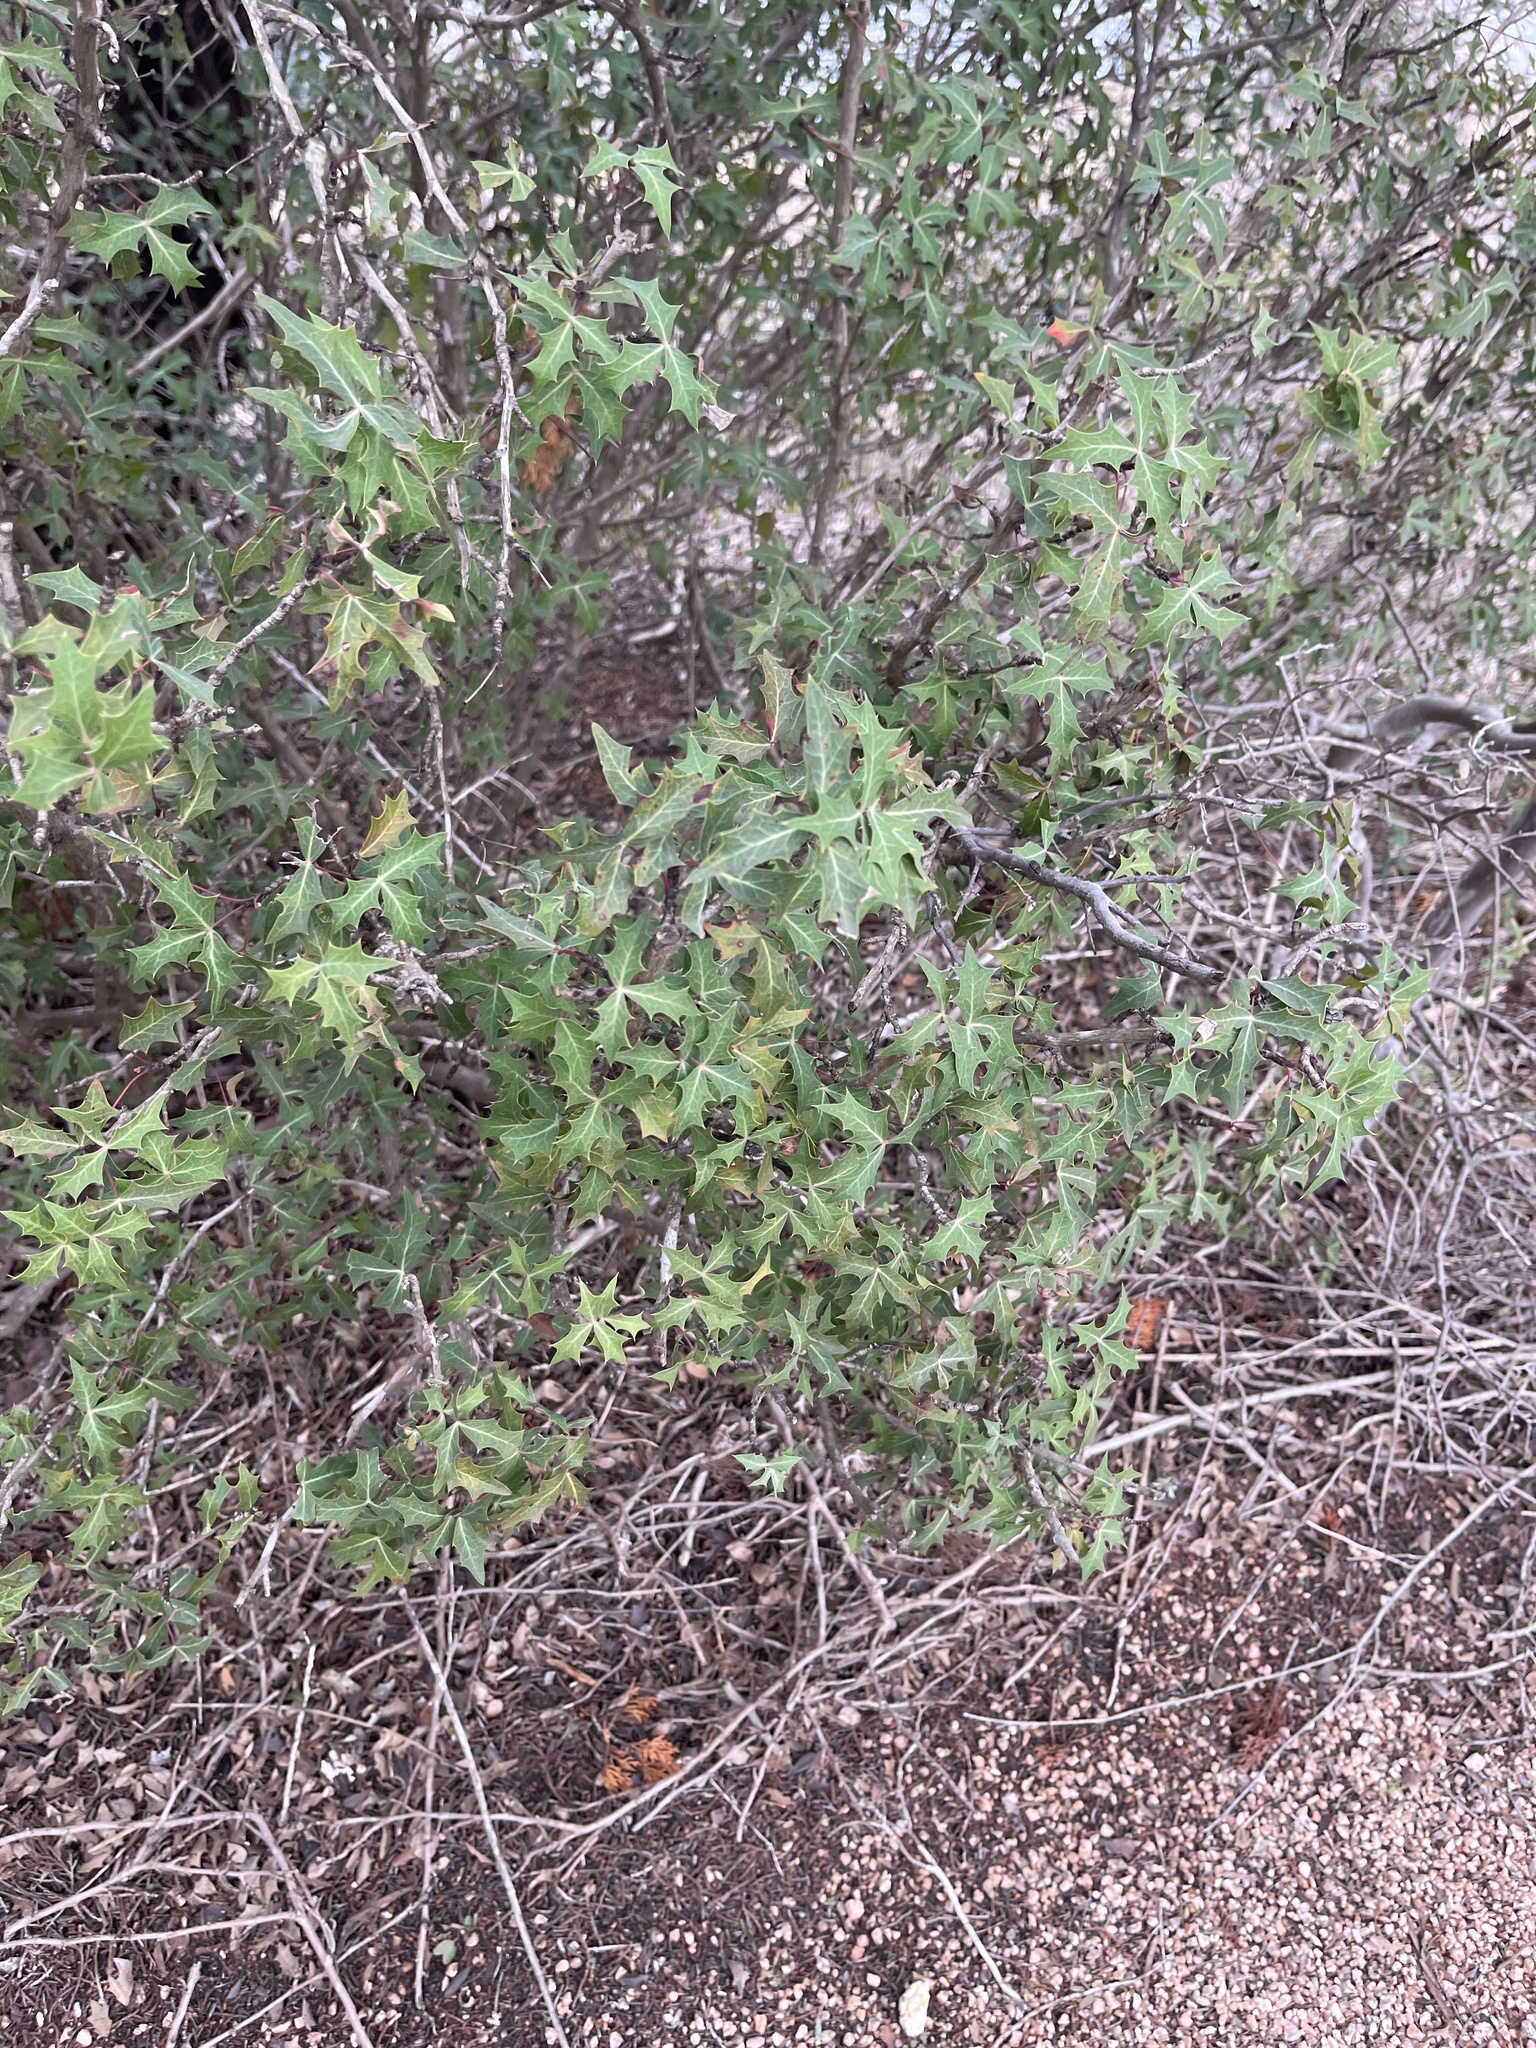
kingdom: Plantae
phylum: Tracheophyta
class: Magnoliopsida
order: Ranunculales
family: Berberidaceae
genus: Alloberberis
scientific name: Alloberberis trifoliolata
